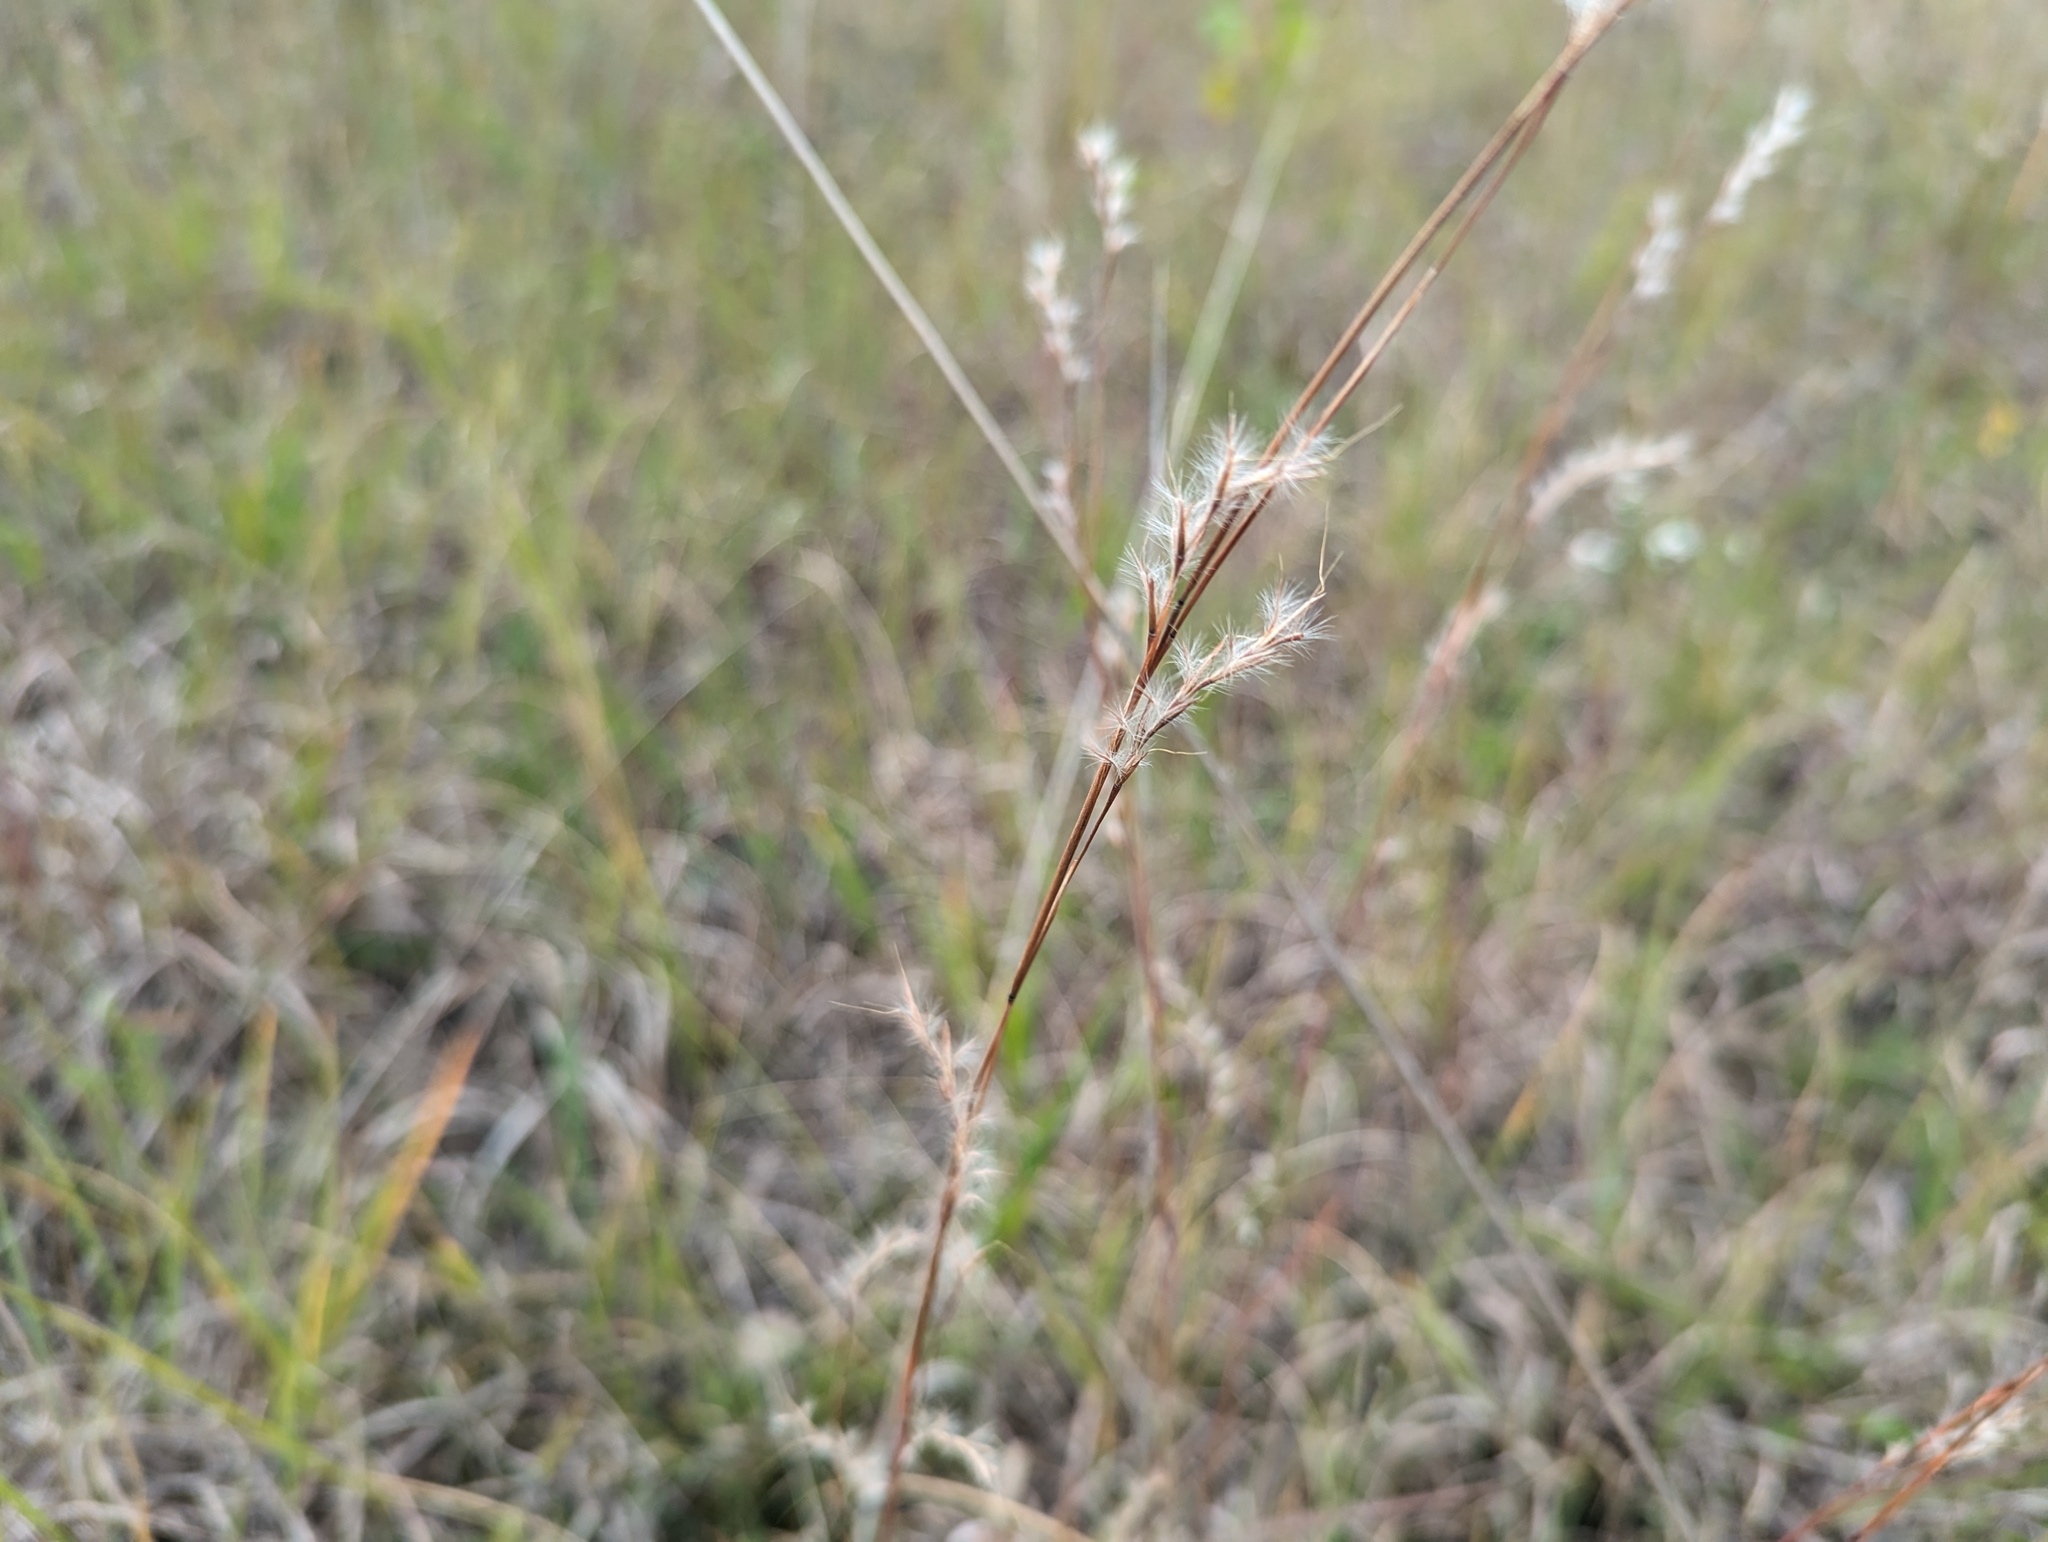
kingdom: Plantae
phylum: Tracheophyta
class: Liliopsida
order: Poales
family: Poaceae
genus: Schizachyrium
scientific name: Schizachyrium scoparium
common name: Little bluestem
